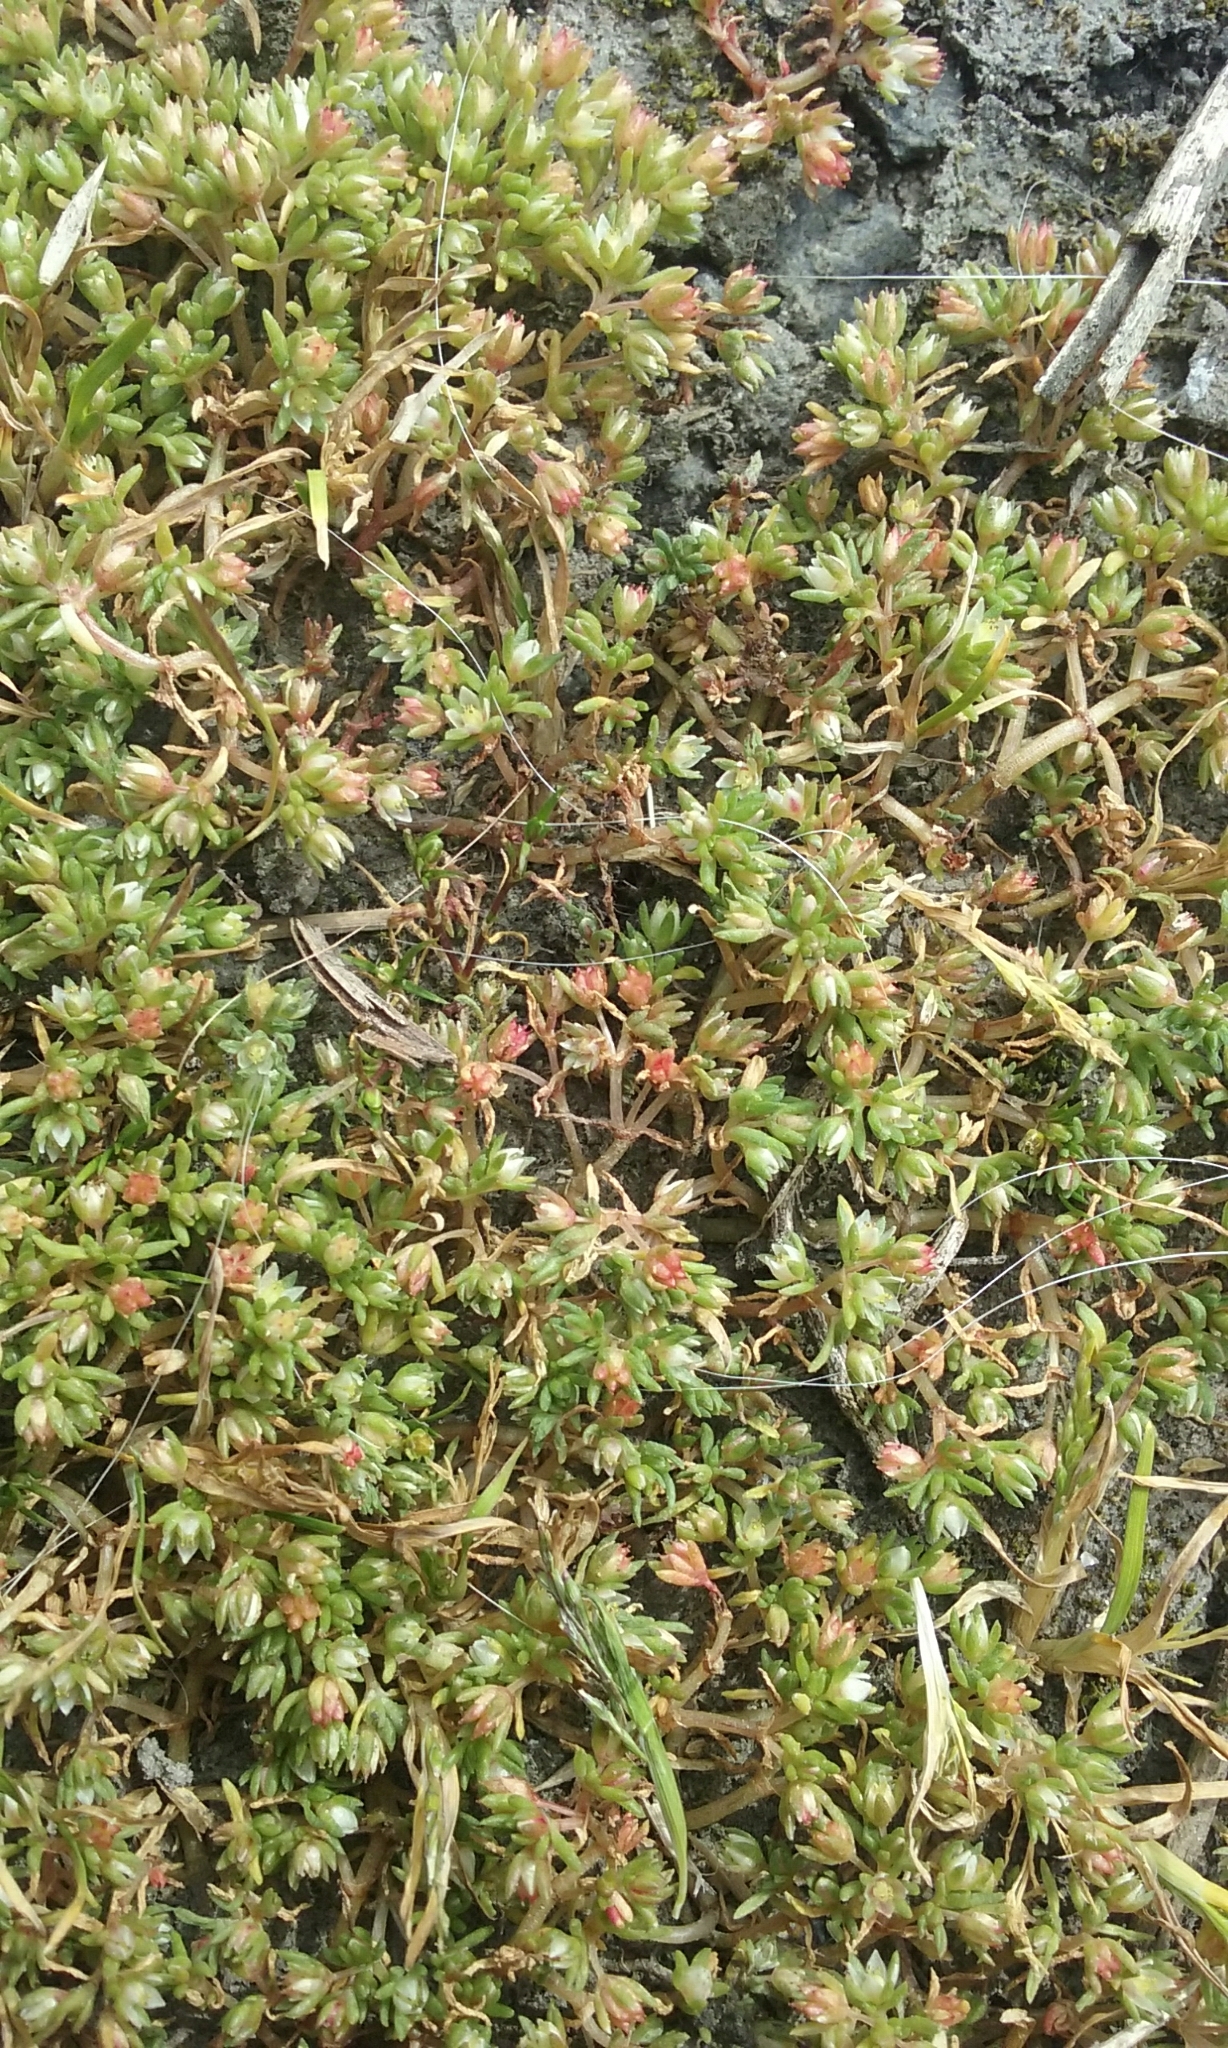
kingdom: Plantae
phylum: Tracheophyta
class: Magnoliopsida
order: Caryophyllales
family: Caryophyllaceae
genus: Polycarpon
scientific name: Polycarpon tetraphyllum
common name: Four-leaved all-seed
